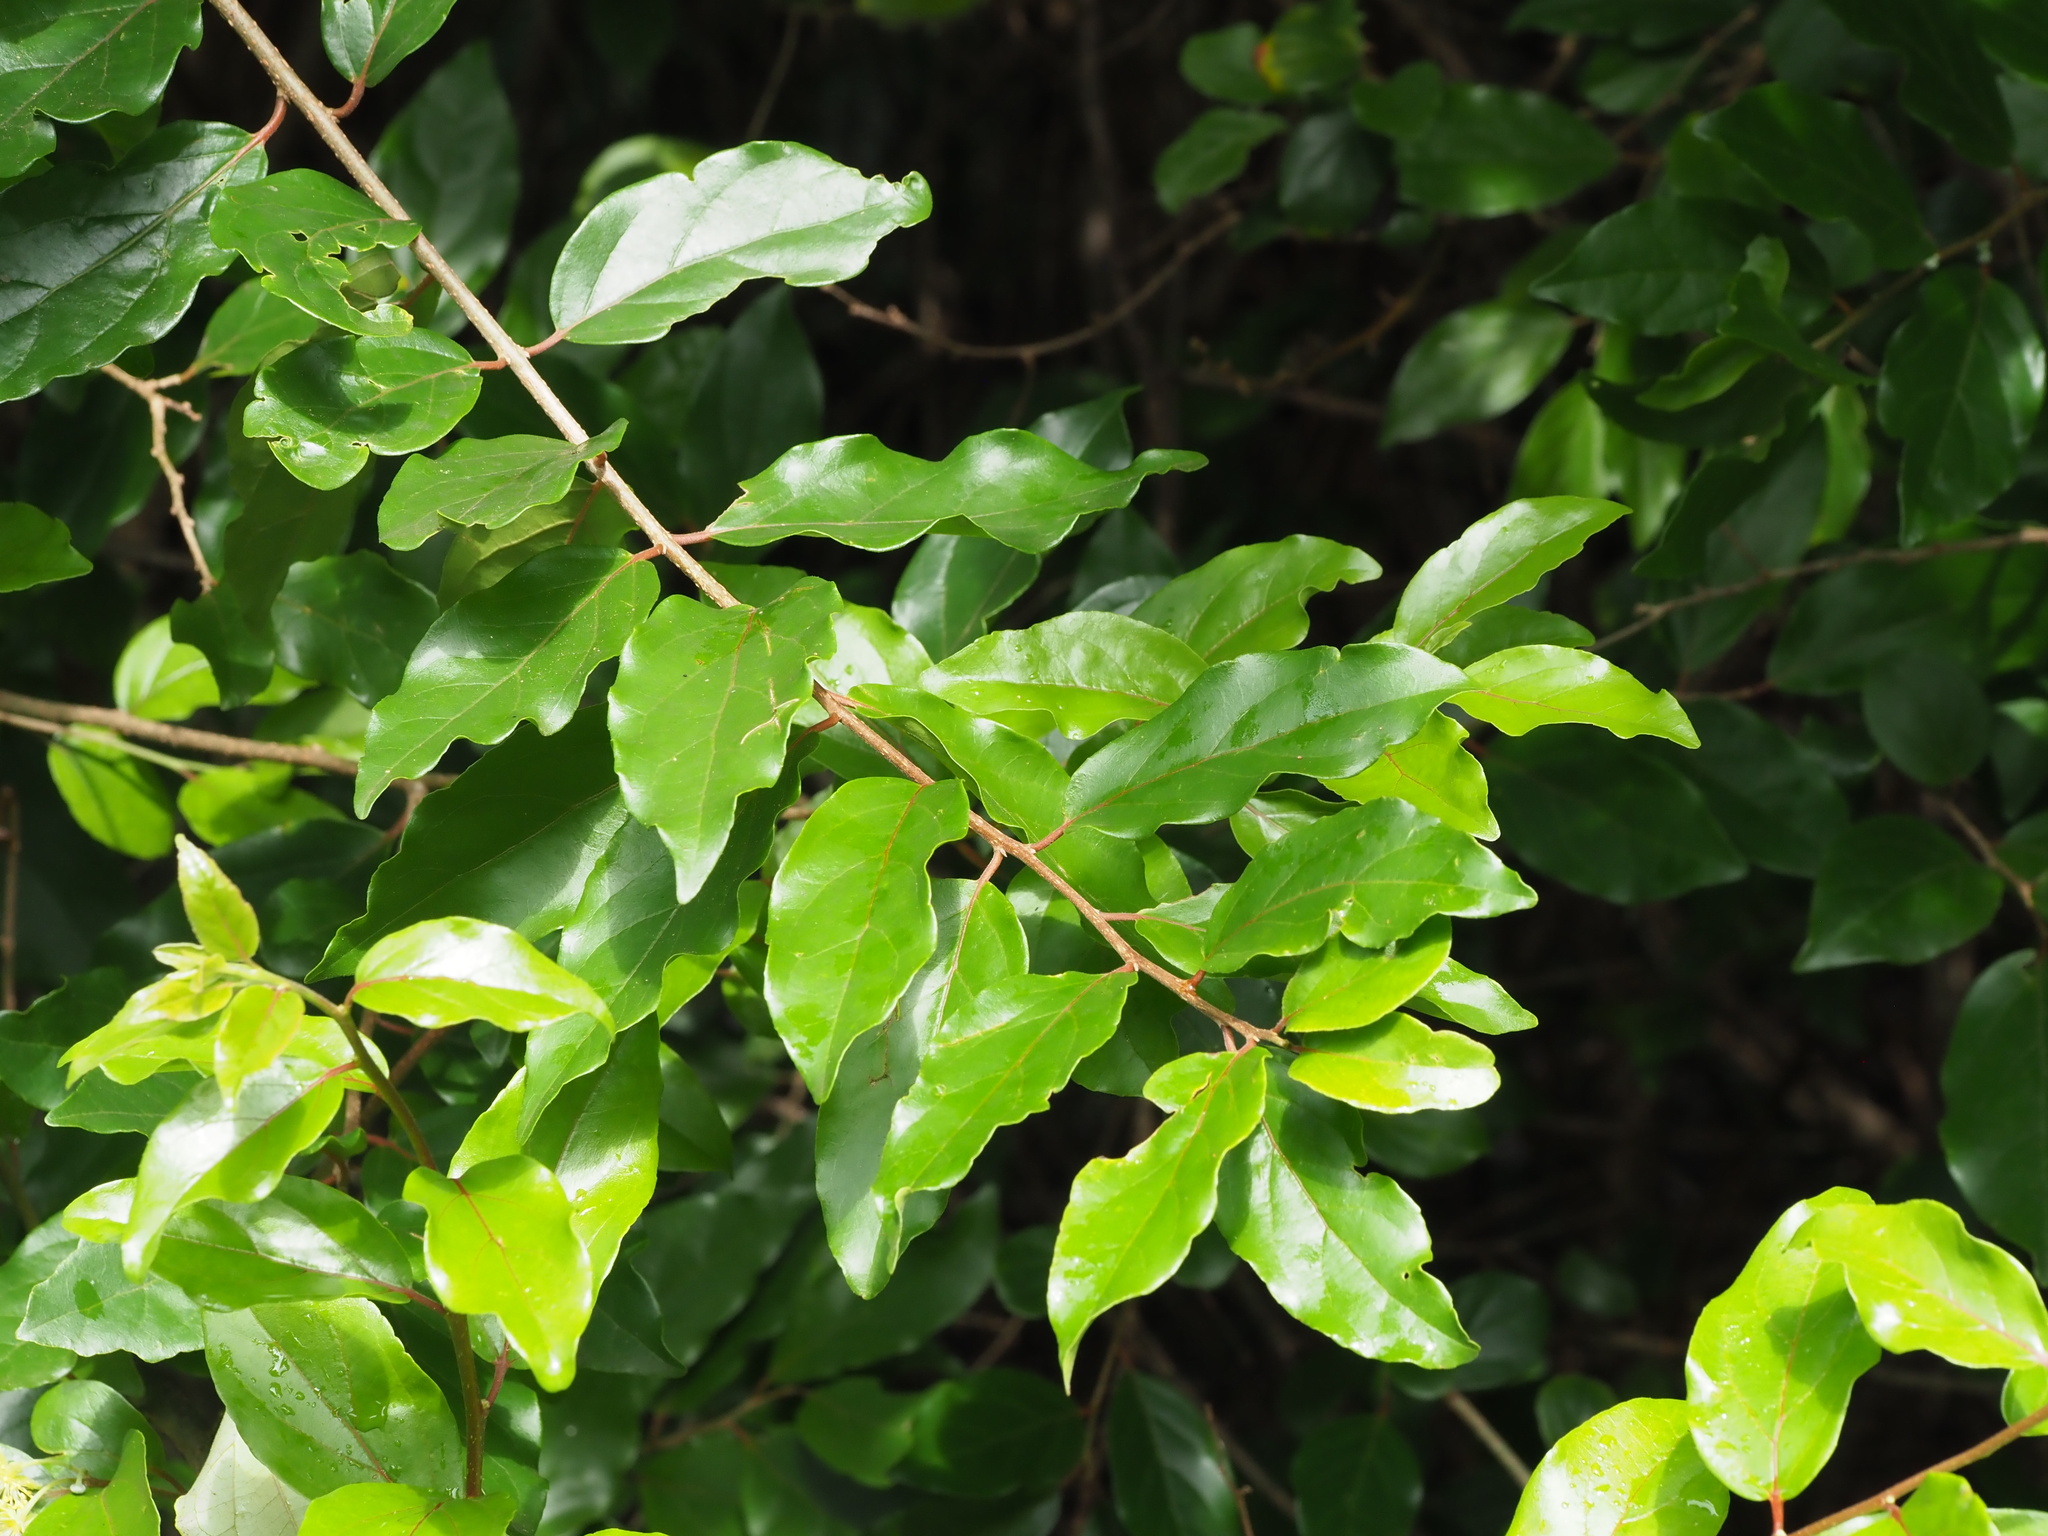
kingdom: Plantae
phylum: Tracheophyta
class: Magnoliopsida
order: Malpighiales
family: Salicaceae
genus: Flacourtia
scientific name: Flacourtia indica
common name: Governor's plum
